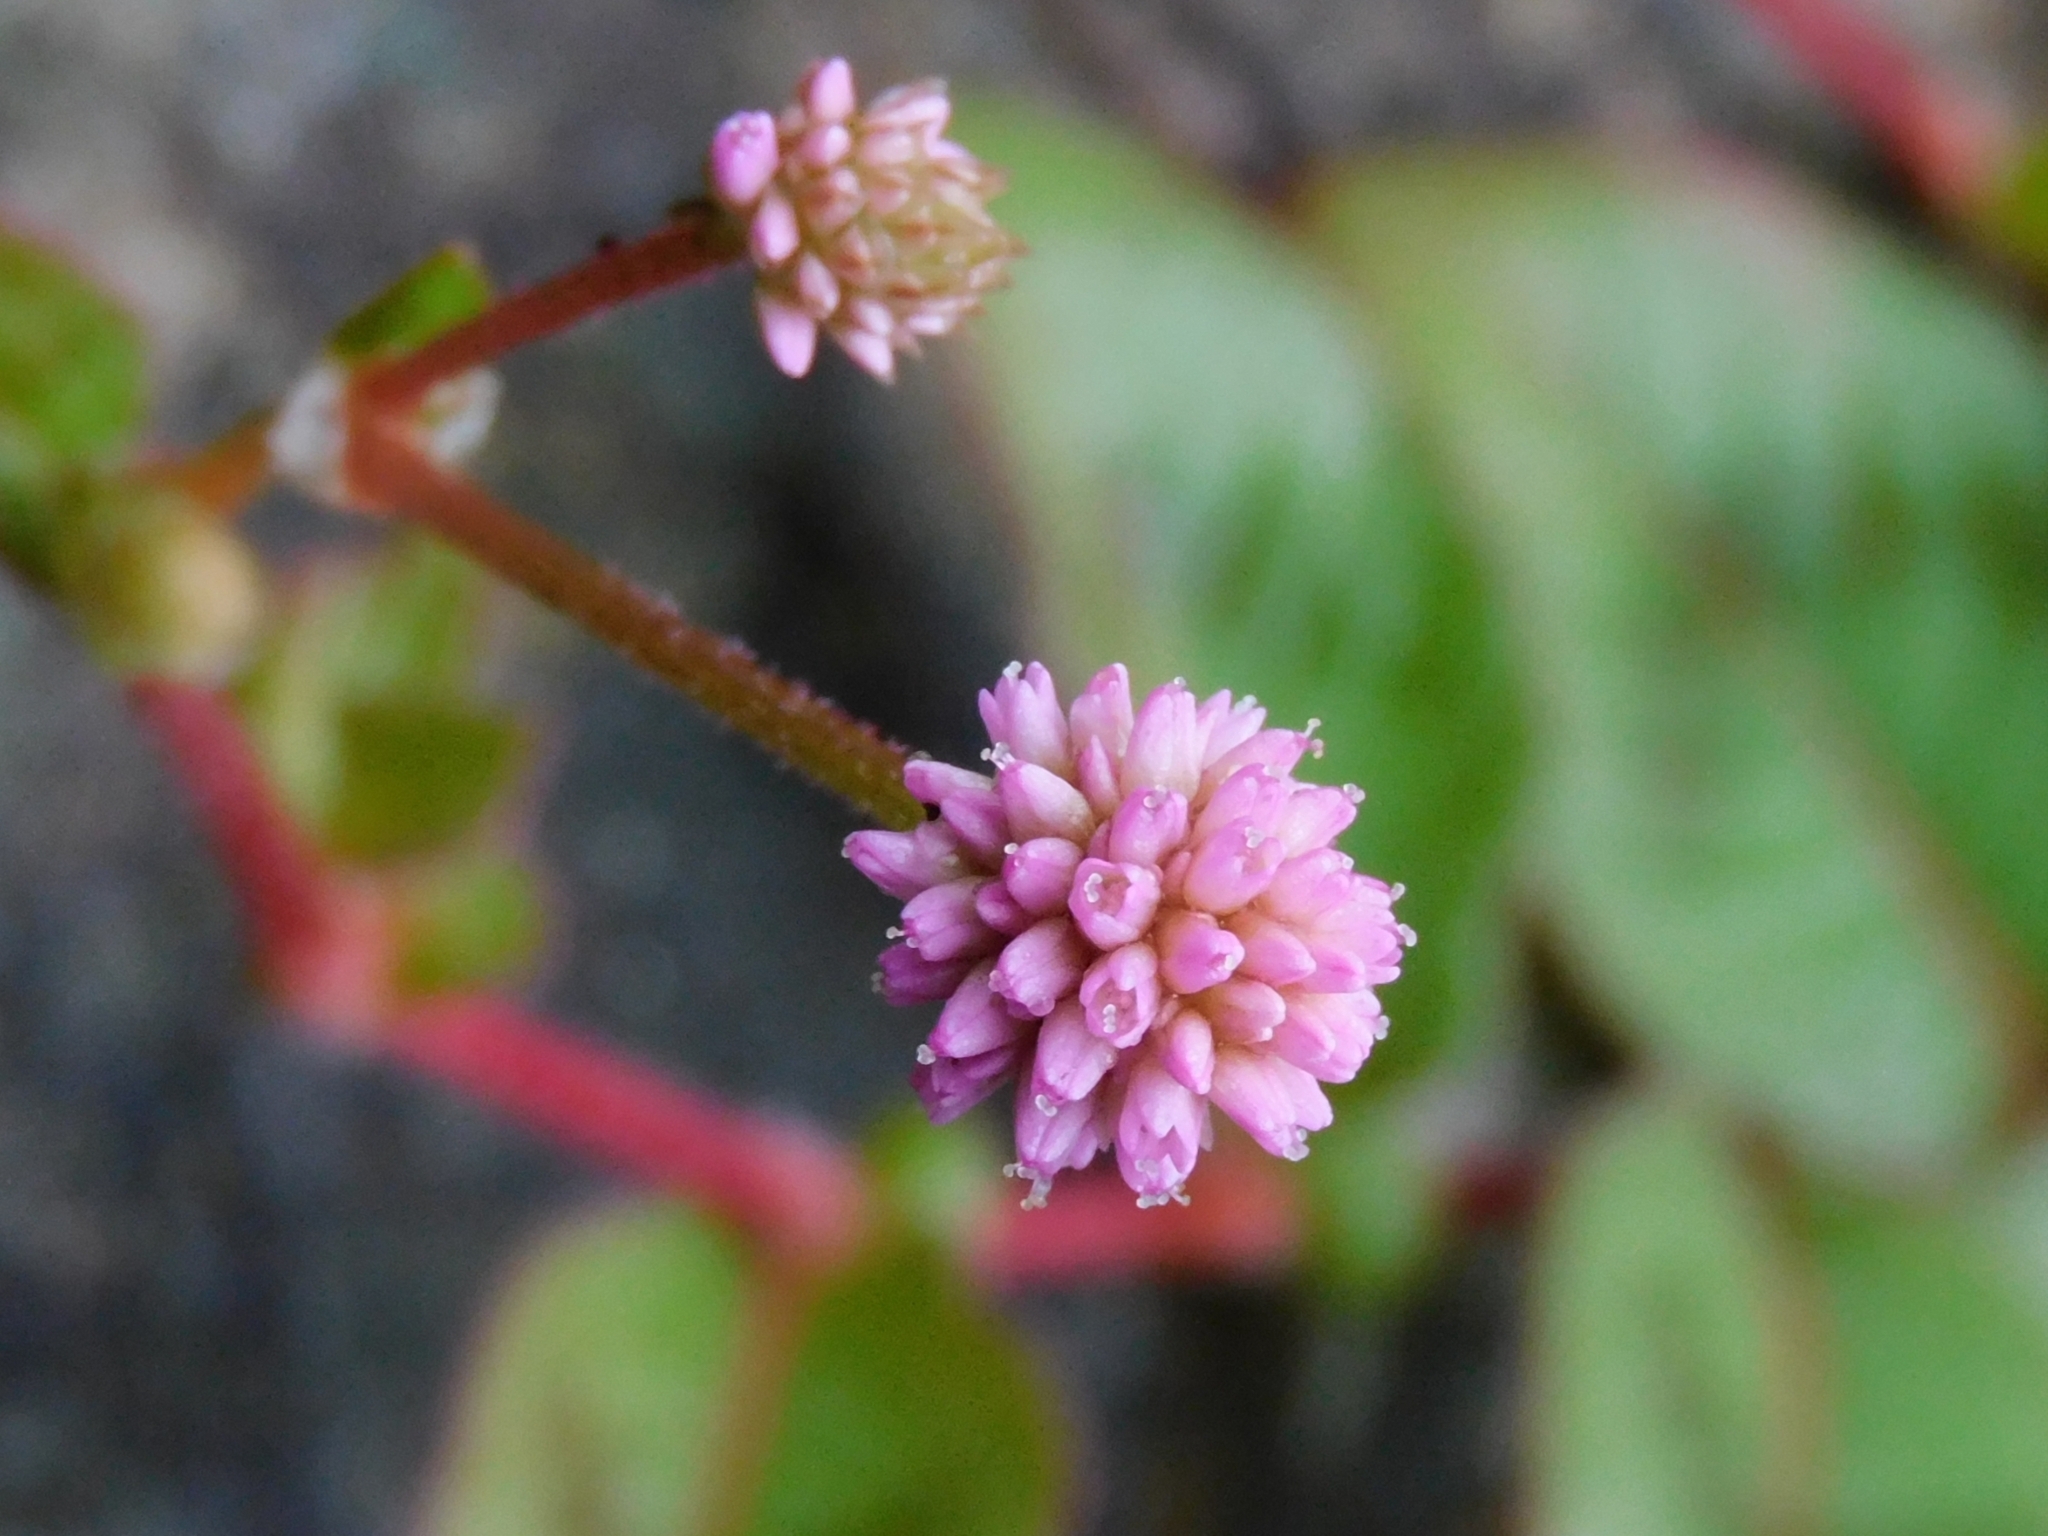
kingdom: Plantae
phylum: Tracheophyta
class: Magnoliopsida
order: Caryophyllales
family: Polygonaceae
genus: Persicaria
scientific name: Persicaria capitata
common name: Pinkhead smartweed
